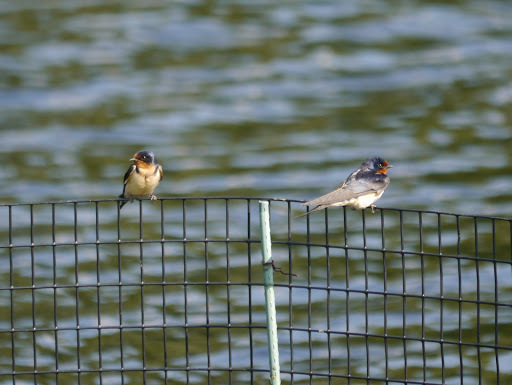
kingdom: Animalia
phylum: Chordata
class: Aves
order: Passeriformes
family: Hirundinidae
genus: Hirundo
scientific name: Hirundo rustica
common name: Barn swallow
